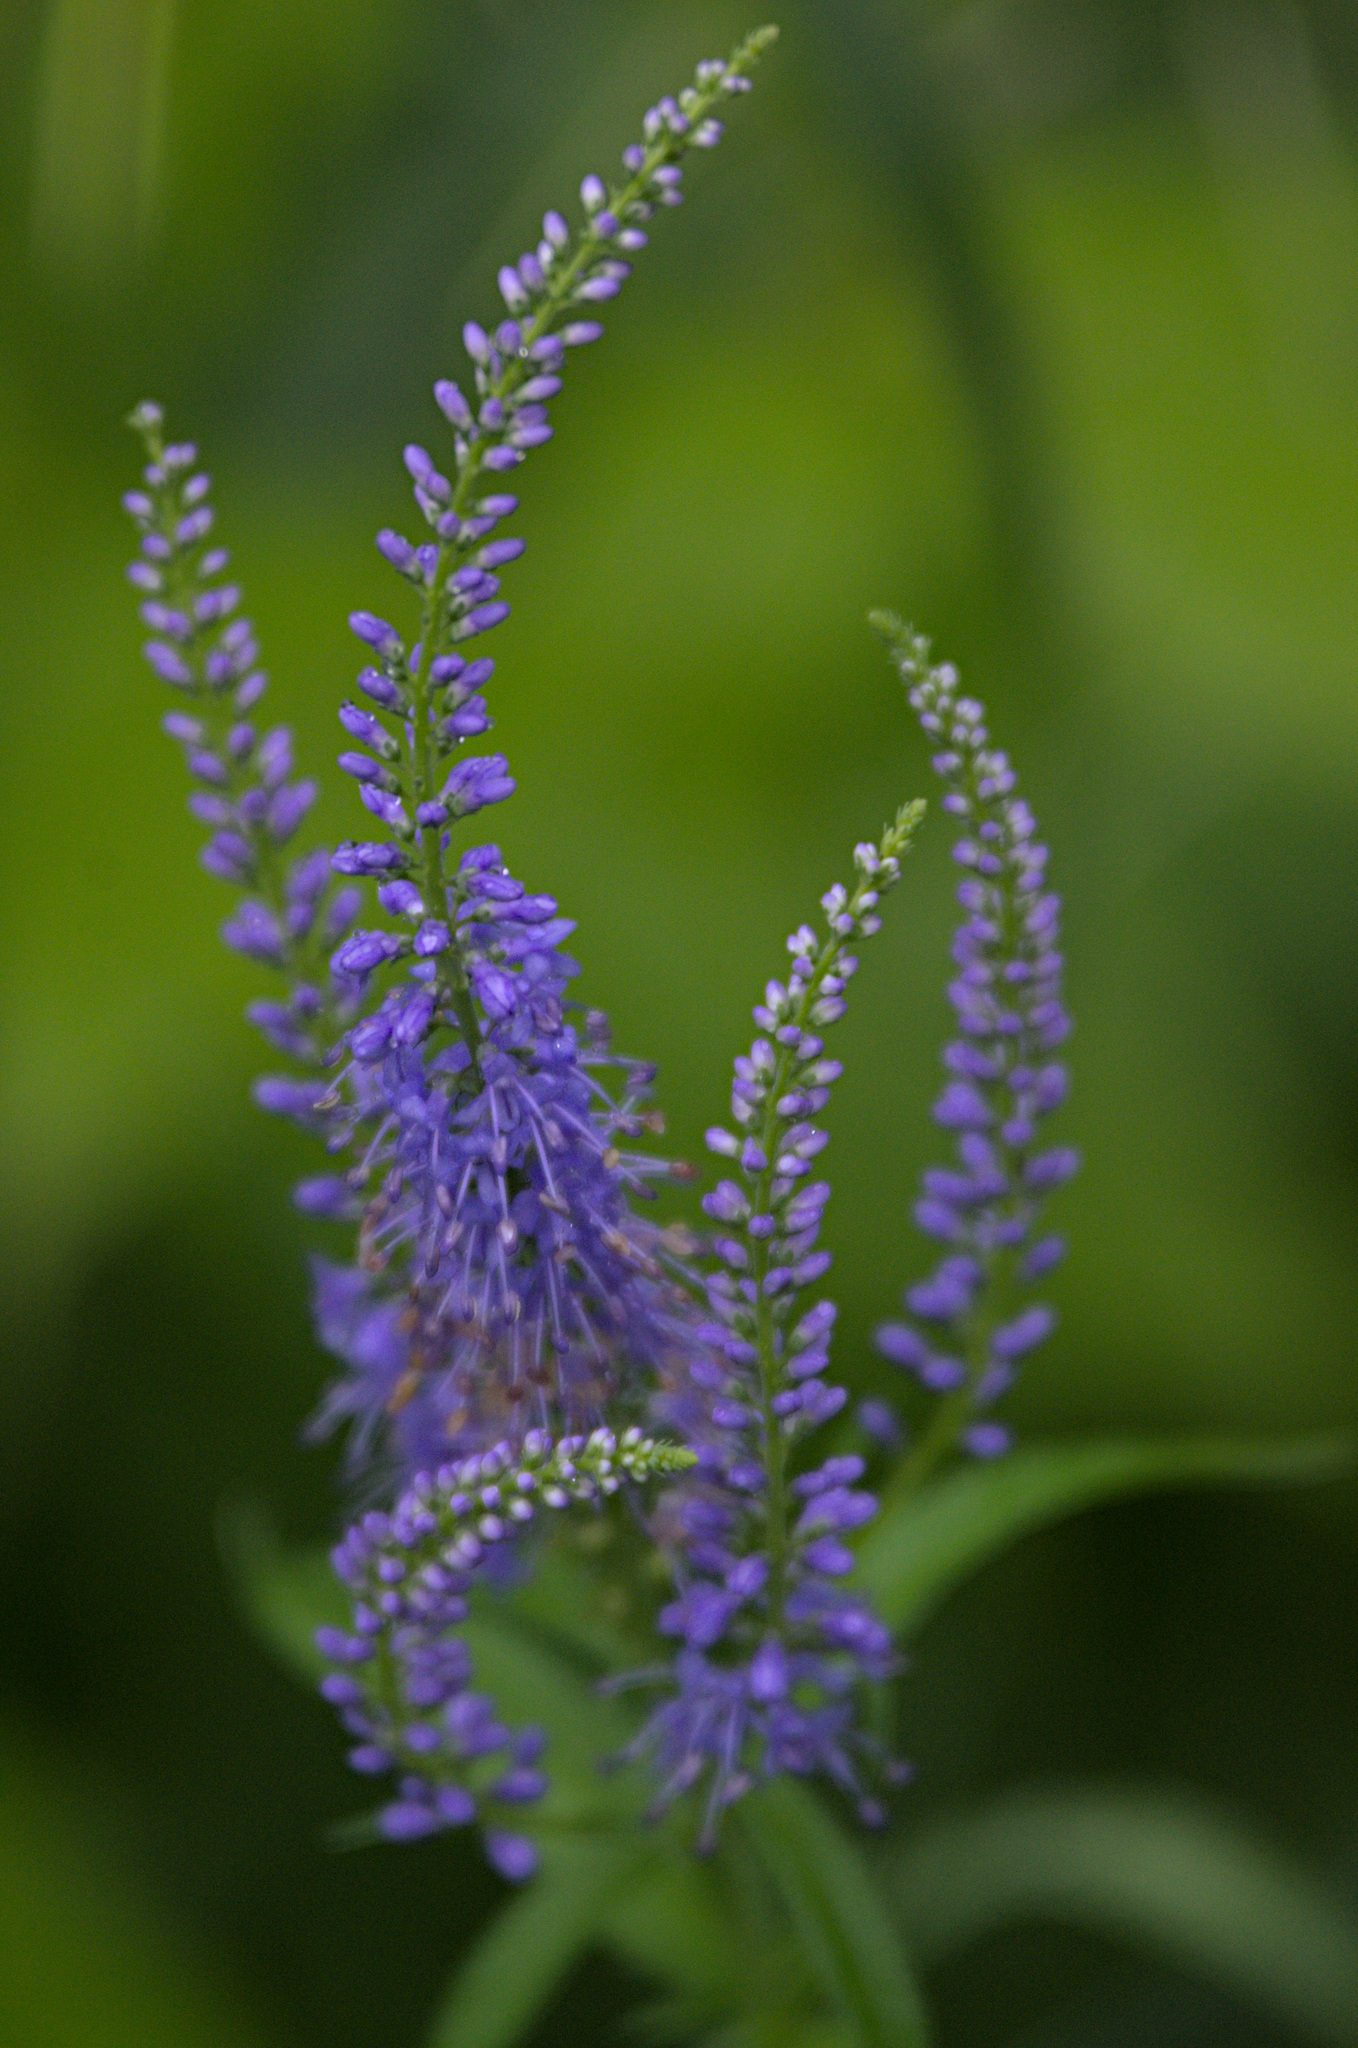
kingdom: Plantae
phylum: Tracheophyta
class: Magnoliopsida
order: Lamiales
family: Plantaginaceae
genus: Veronica
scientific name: Veronica longifolia
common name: Garden speedwell
